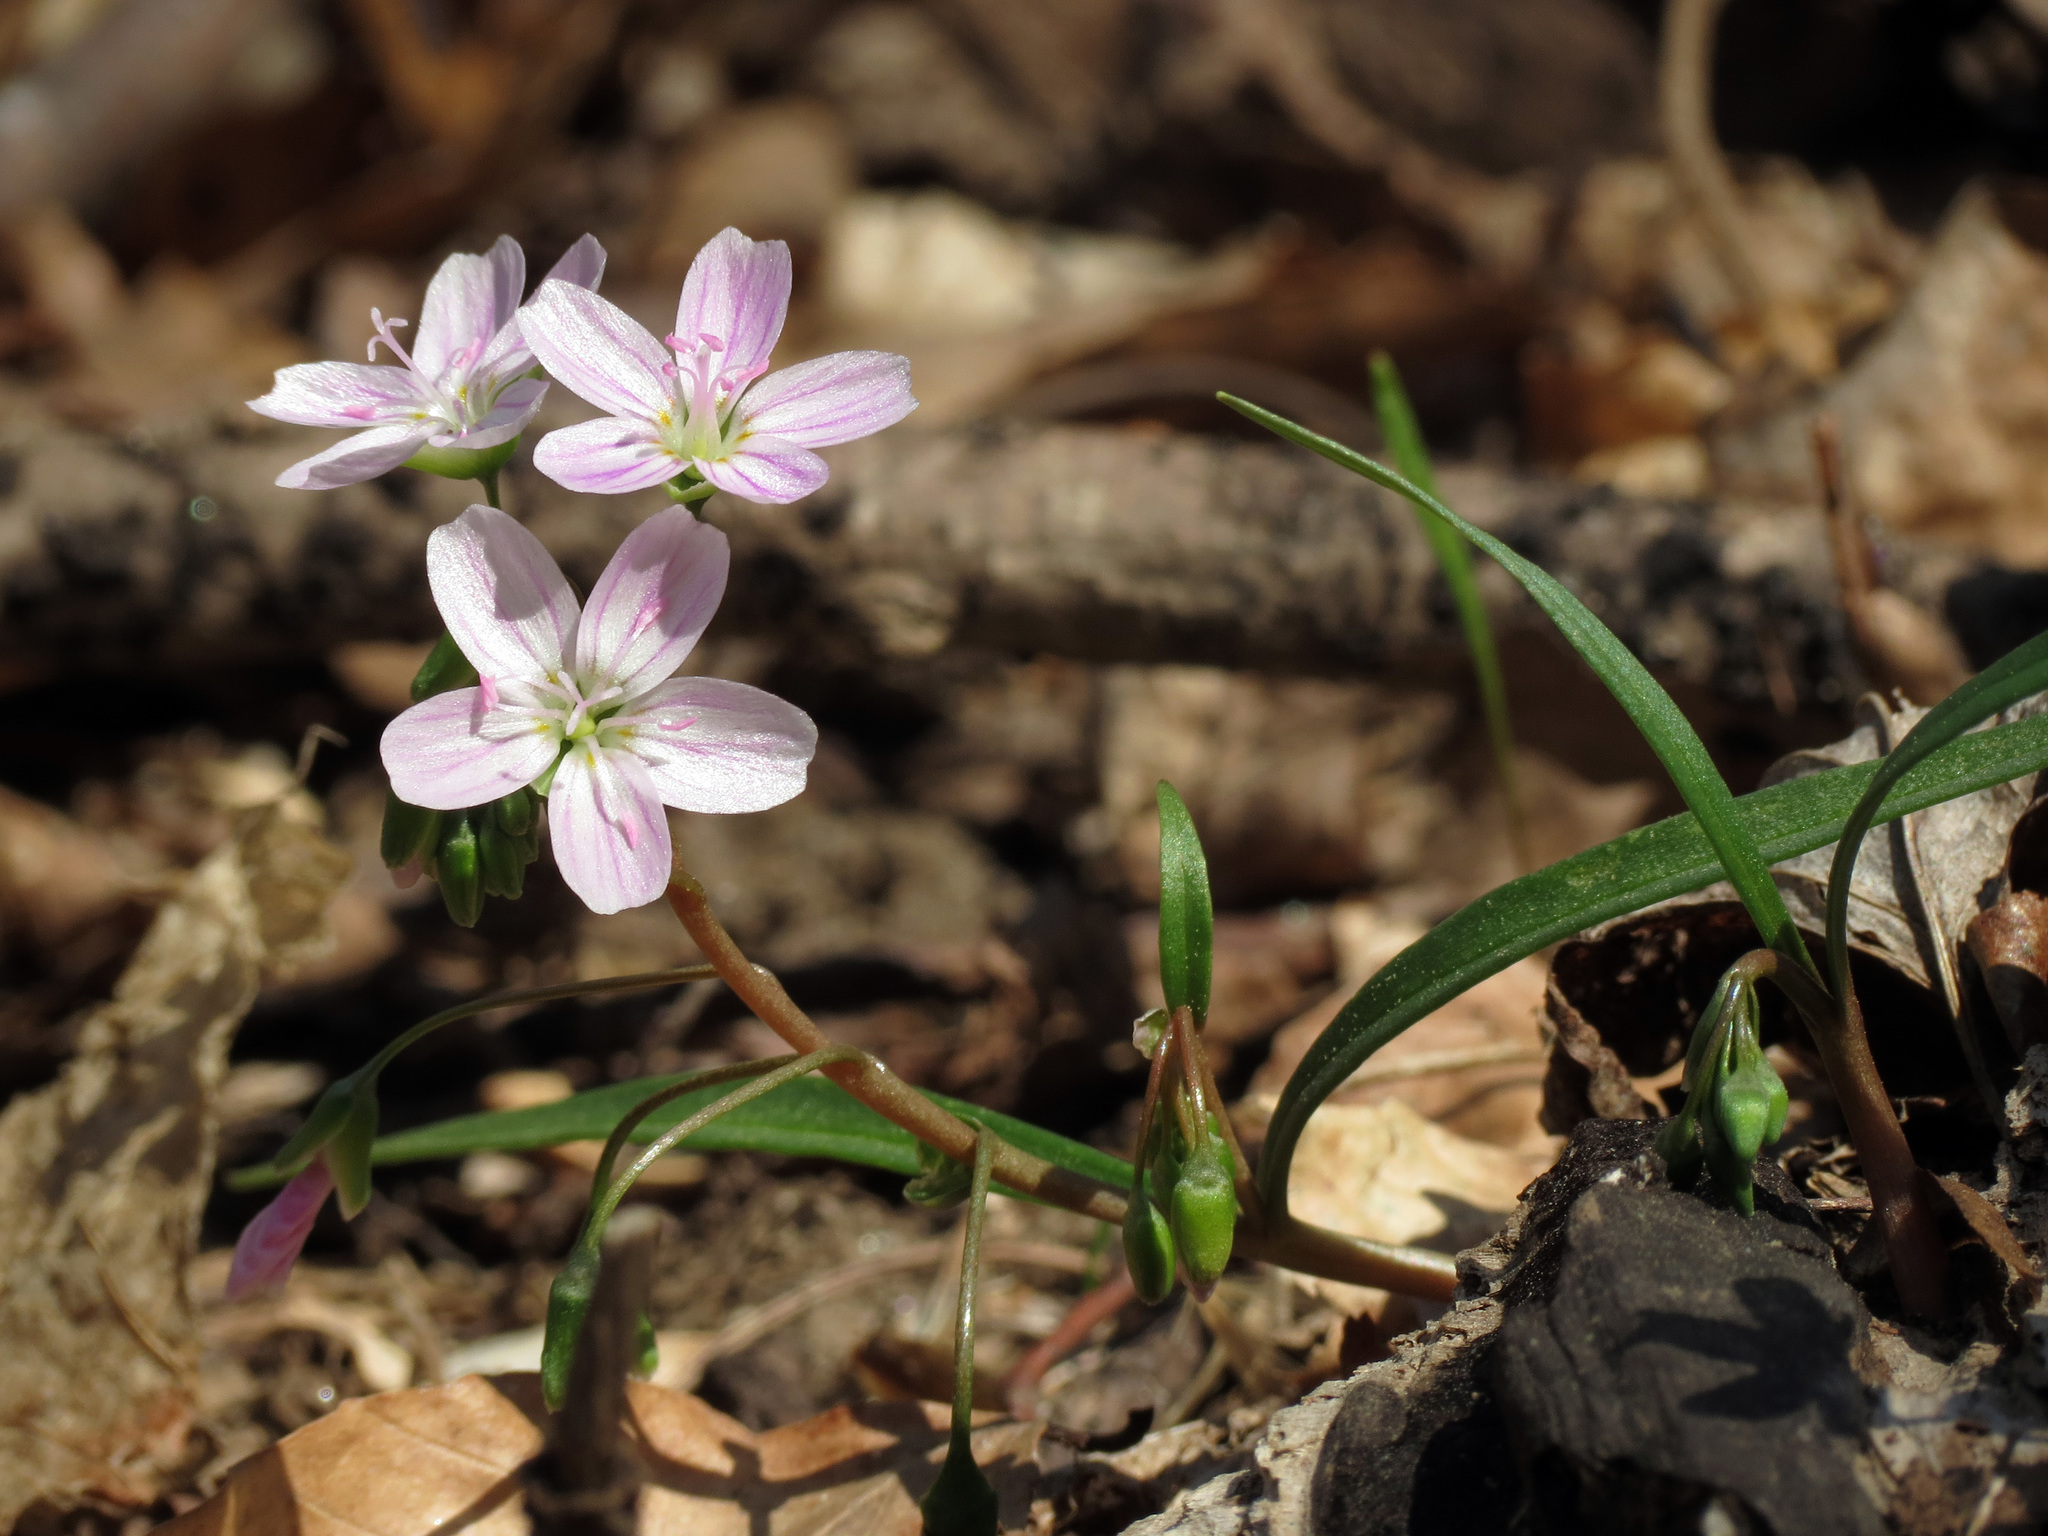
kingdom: Plantae
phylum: Tracheophyta
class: Magnoliopsida
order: Caryophyllales
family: Montiaceae
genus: Claytonia
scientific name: Claytonia virginica
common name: Virginia springbeauty
